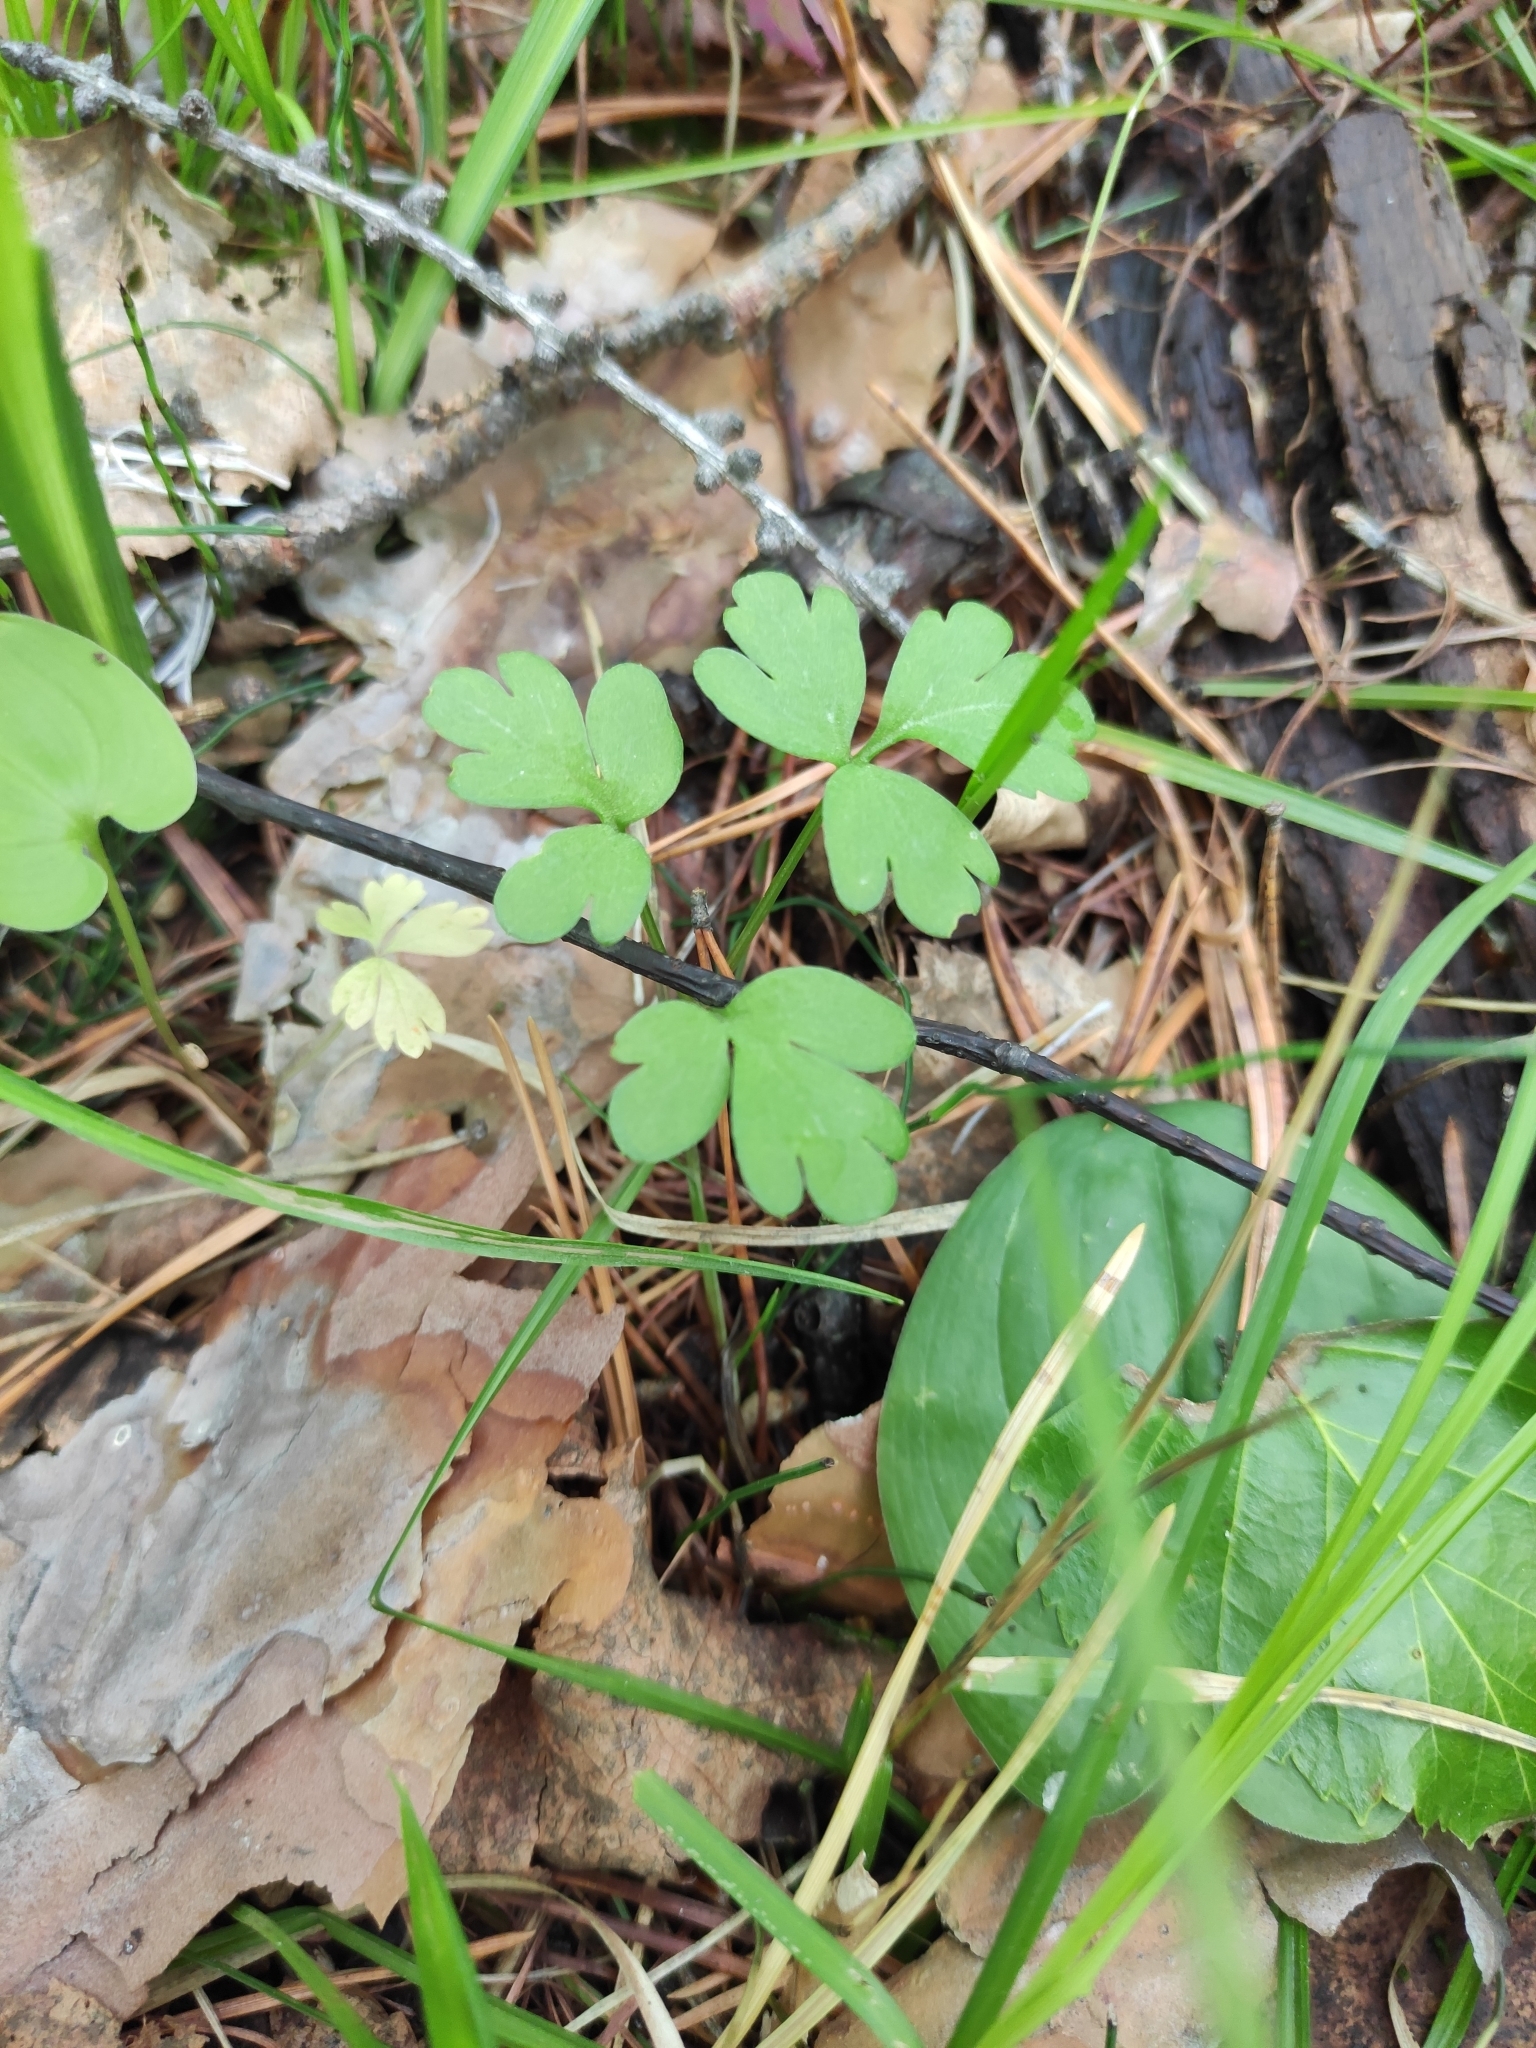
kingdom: Plantae
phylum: Tracheophyta
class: Magnoliopsida
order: Dipsacales
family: Viburnaceae
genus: Adoxa
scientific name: Adoxa moschatellina
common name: Moschatel
